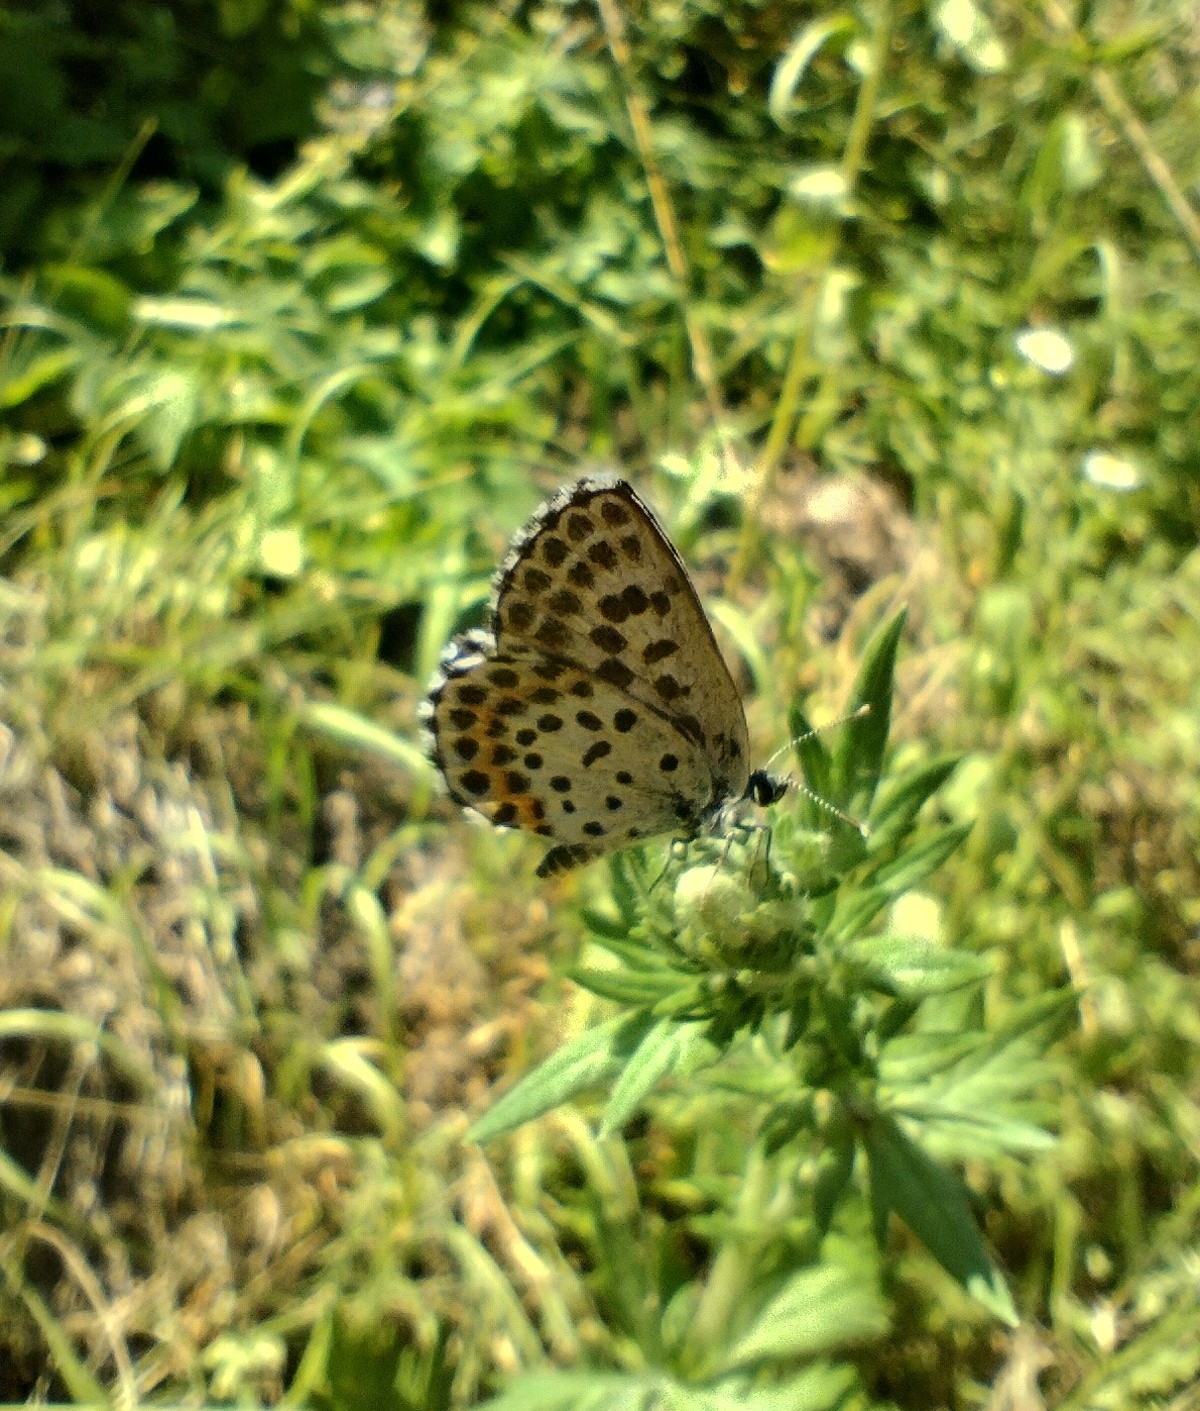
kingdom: Animalia
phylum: Arthropoda
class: Insecta
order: Lepidoptera
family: Lycaenidae
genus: Scolitantides
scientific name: Scolitantides orion
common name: Chequered blue
